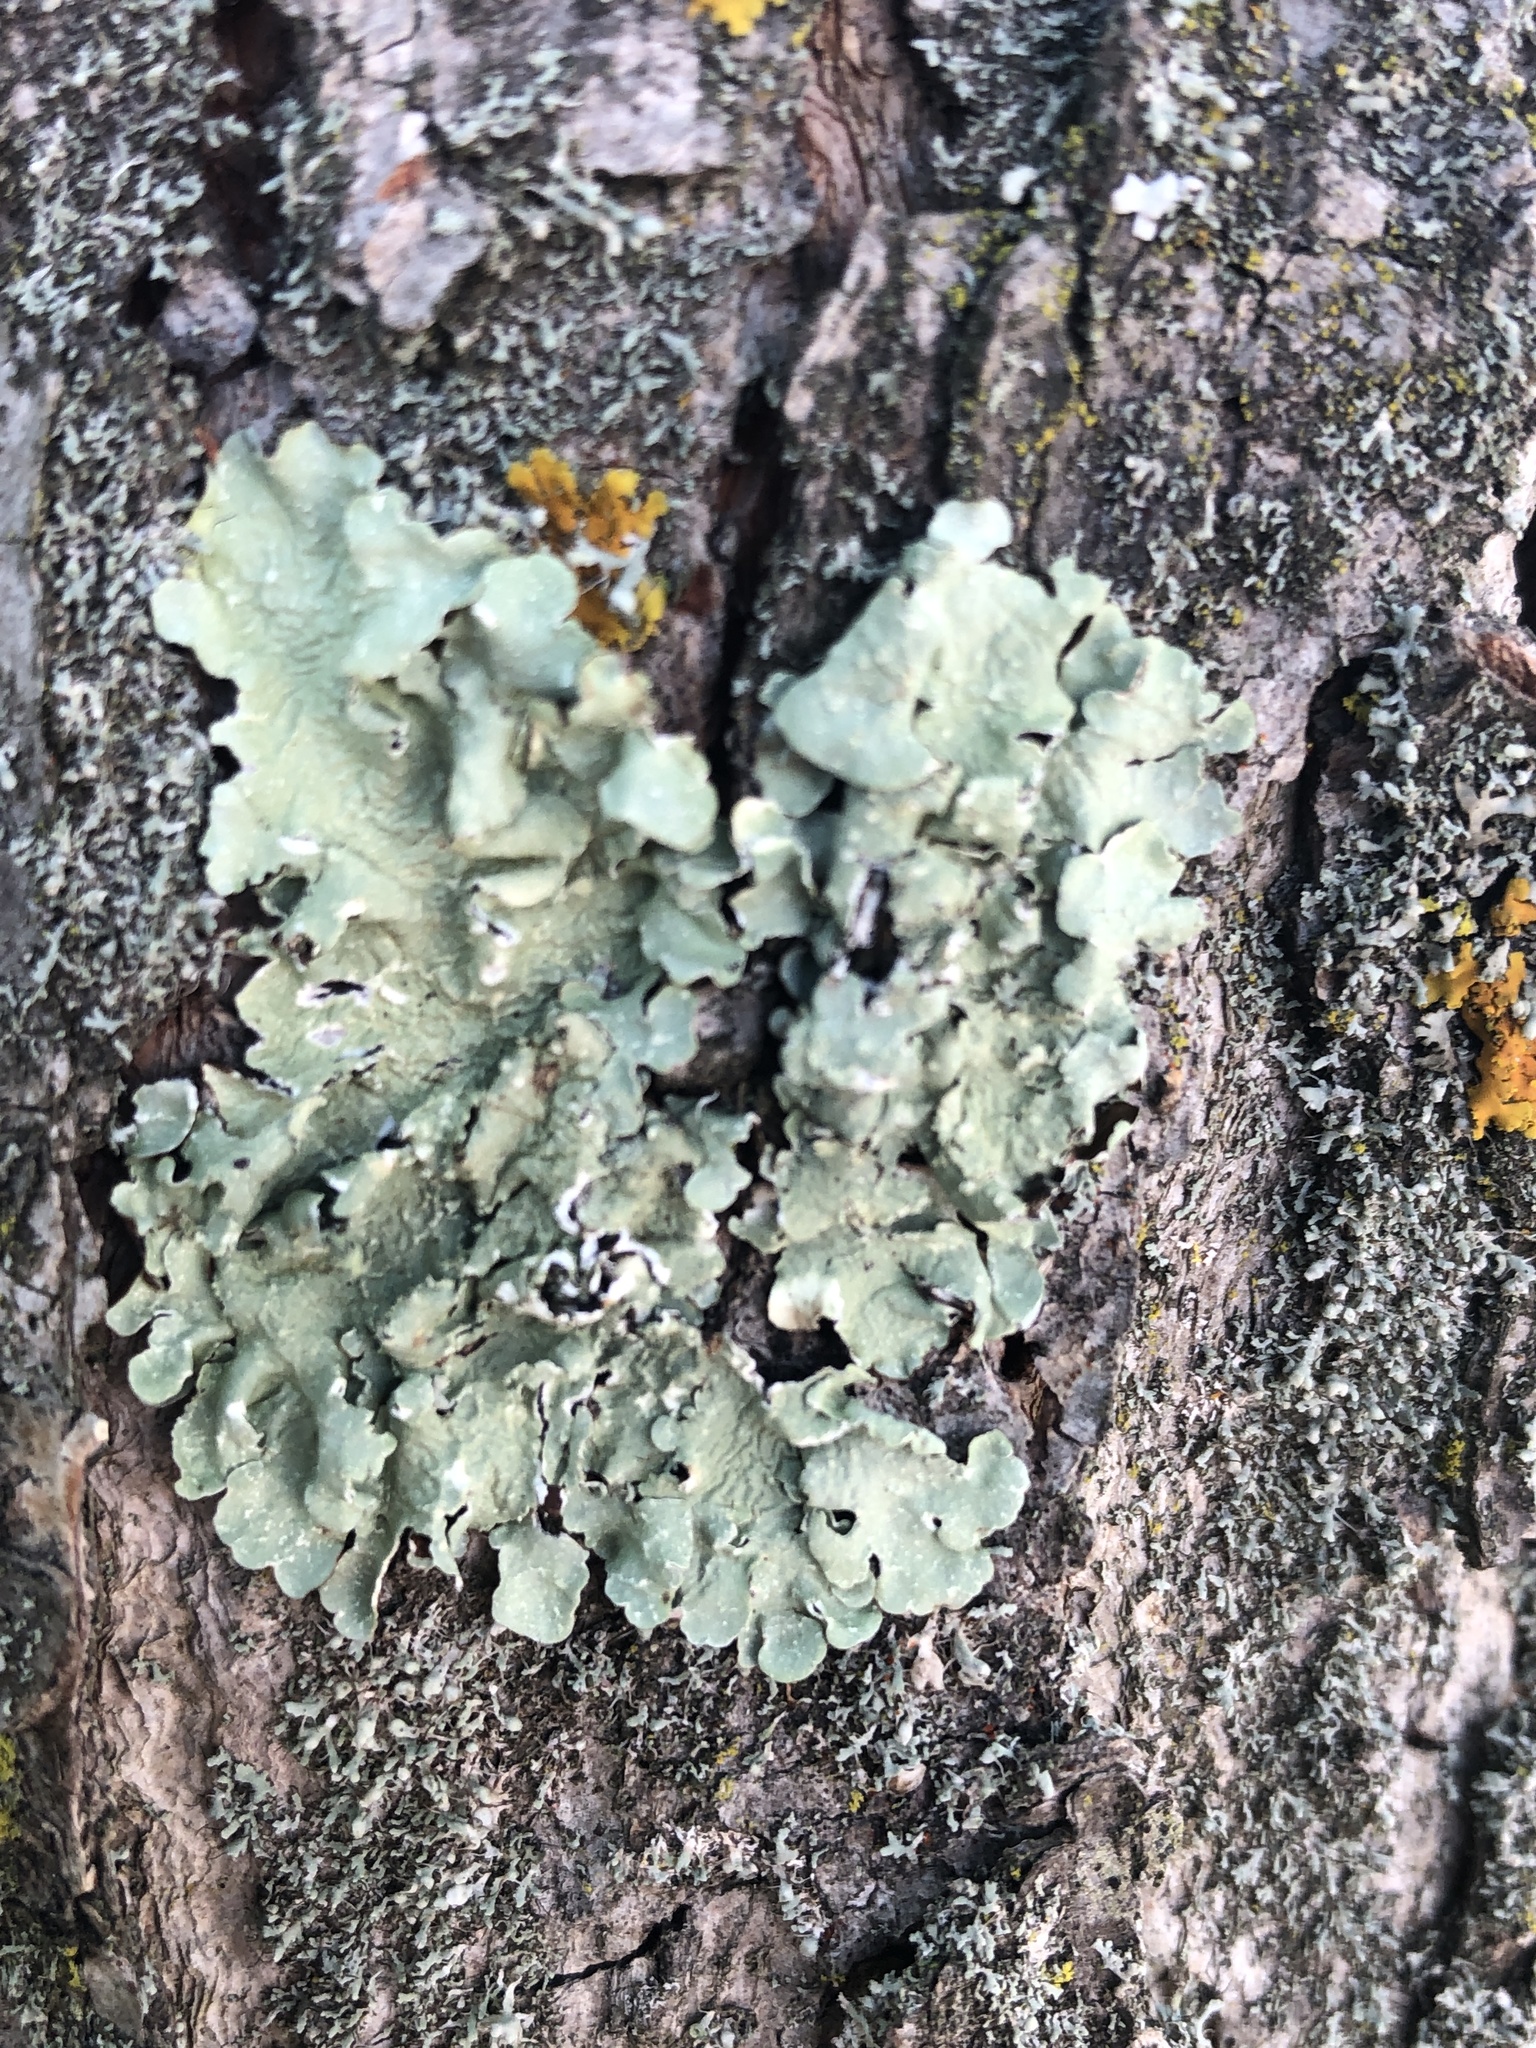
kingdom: Fungi
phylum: Ascomycota
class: Lecanoromycetes
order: Lecanorales
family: Parmeliaceae
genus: Flavopunctelia
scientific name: Flavopunctelia flaventior
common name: Speckled greenshield
